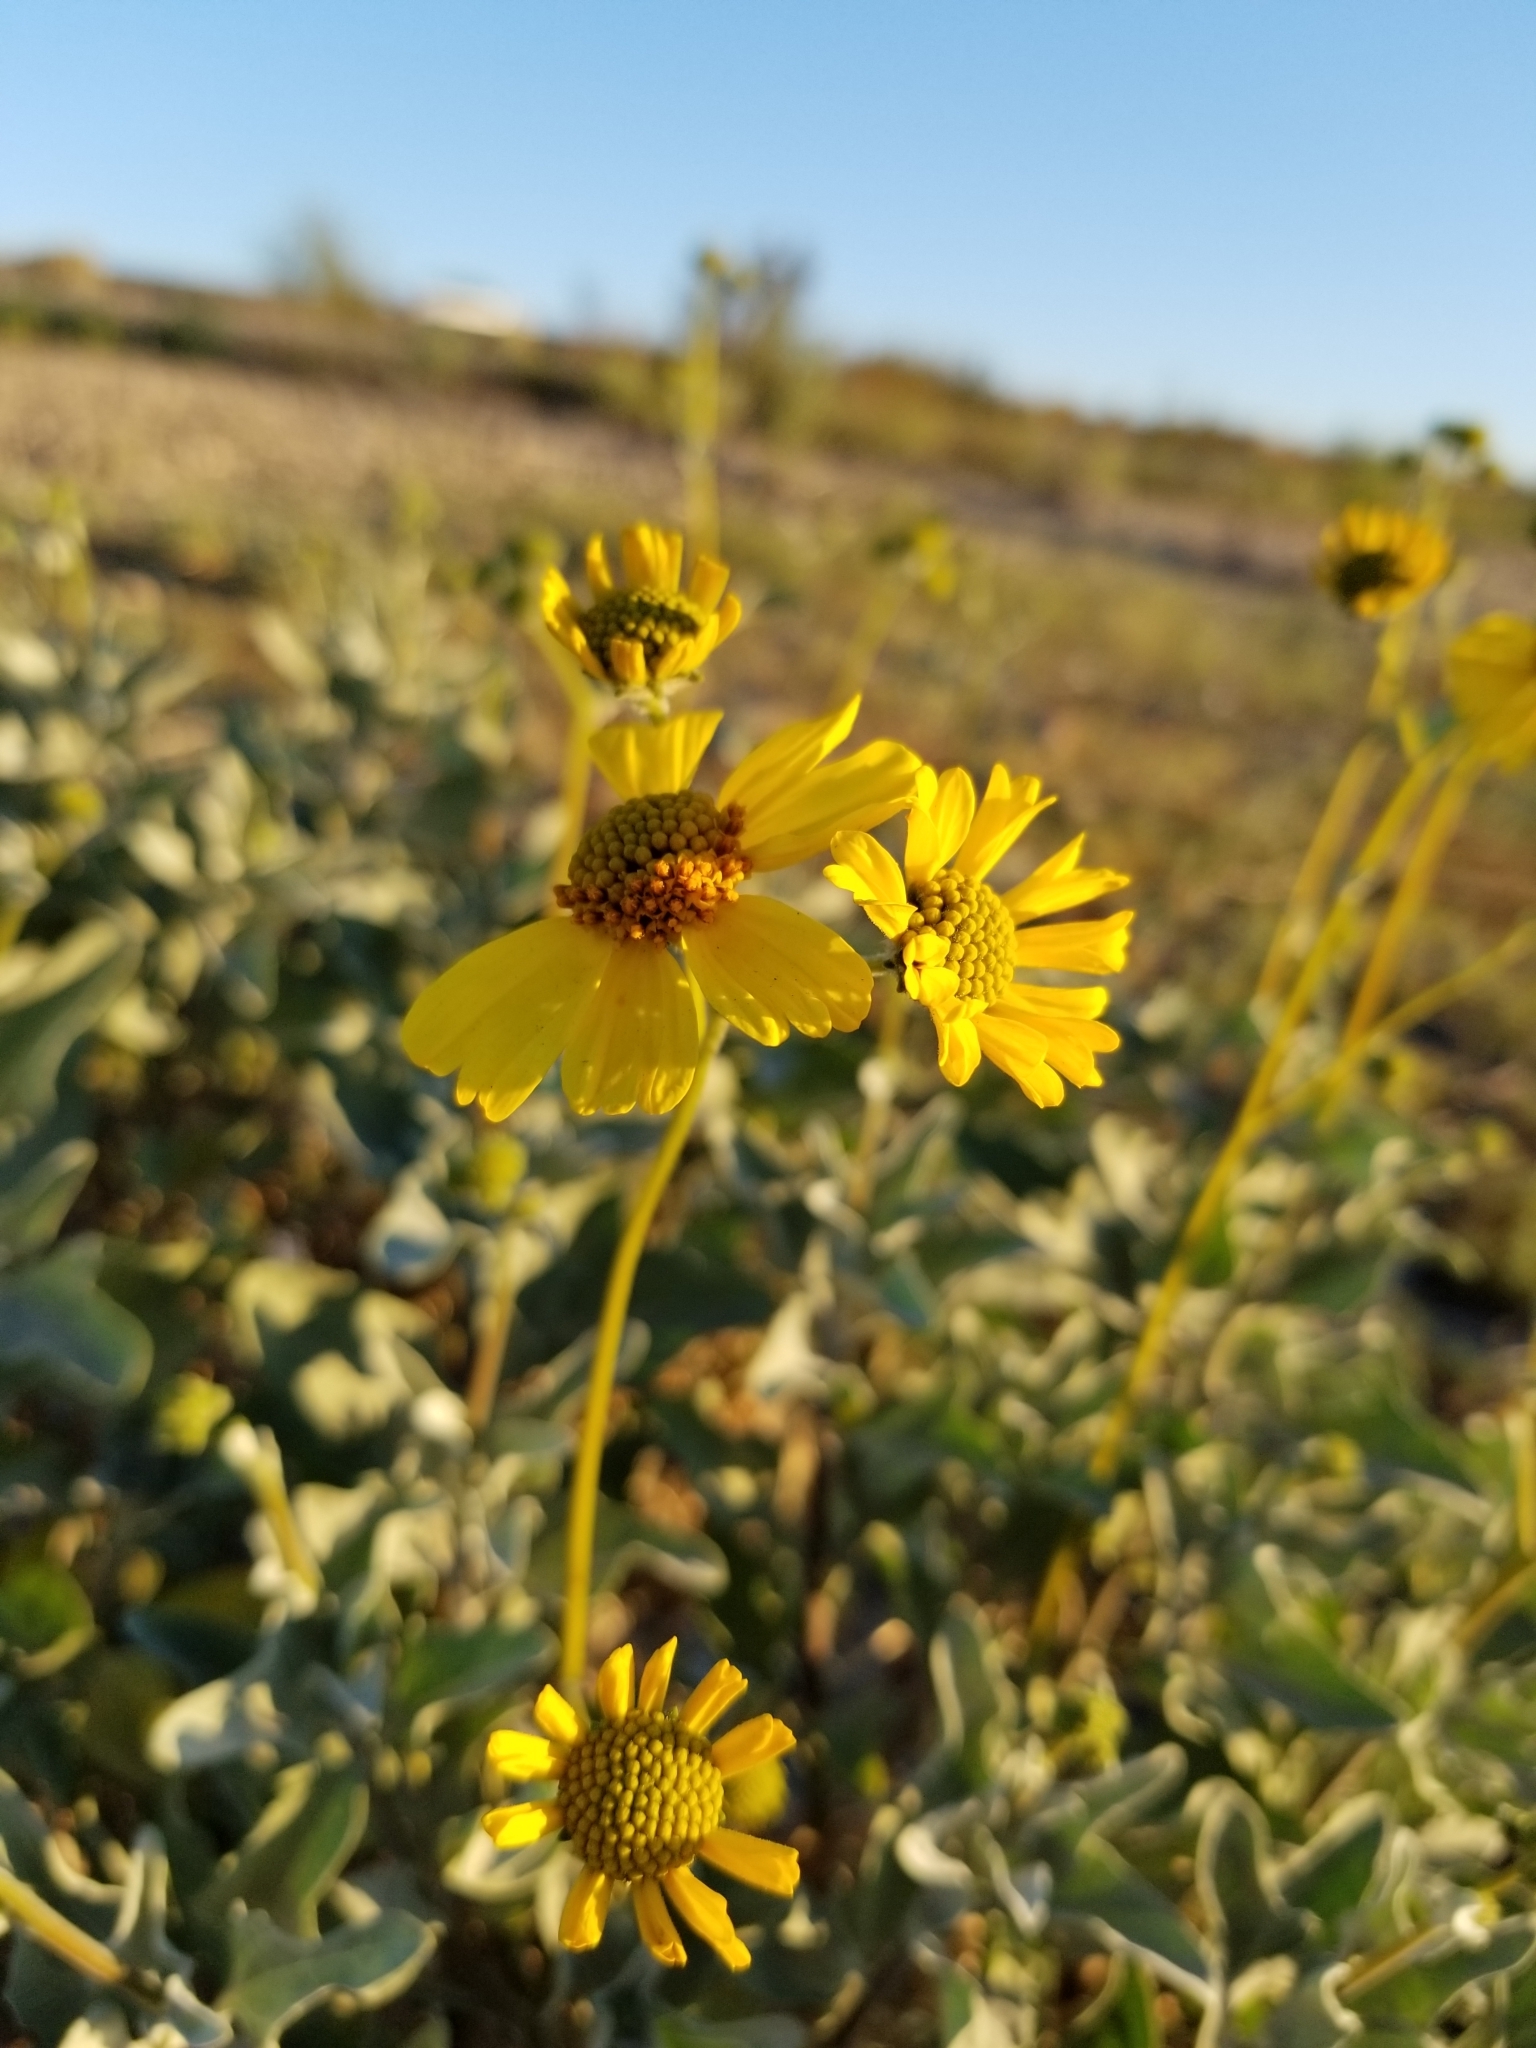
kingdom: Plantae
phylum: Tracheophyta
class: Magnoliopsida
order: Asterales
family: Asteraceae
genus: Encelia
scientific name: Encelia farinosa
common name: Brittlebush
